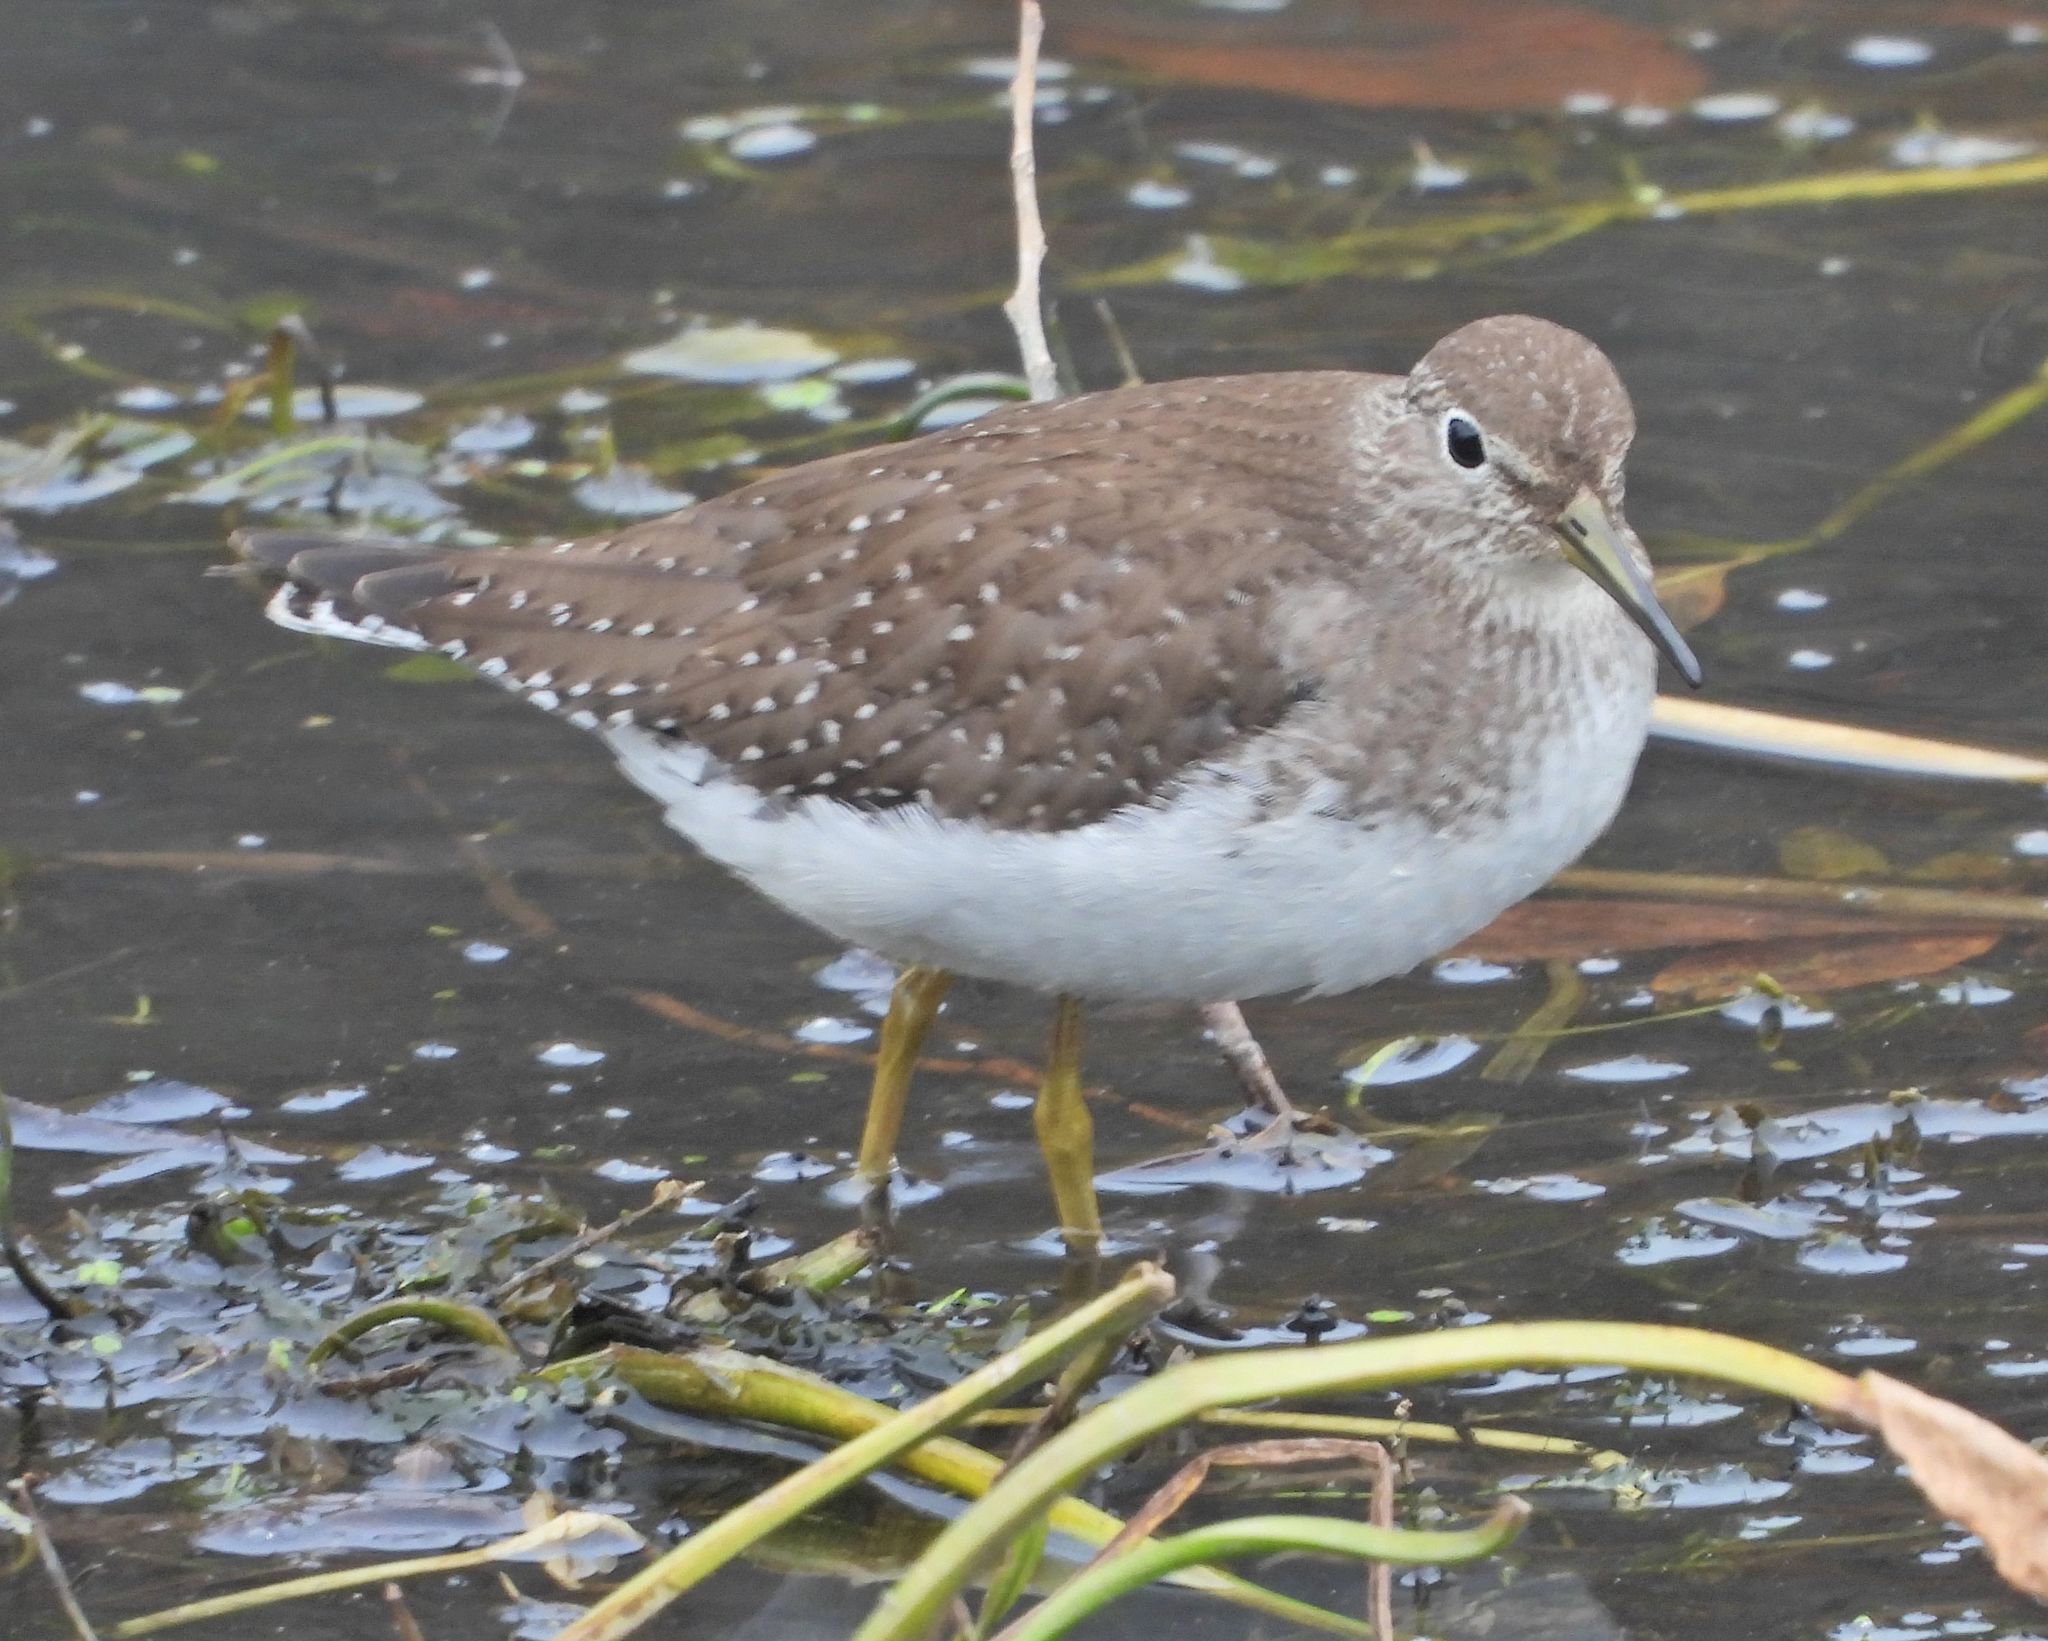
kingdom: Animalia
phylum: Chordata
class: Aves
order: Charadriiformes
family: Scolopacidae
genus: Tringa
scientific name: Tringa solitaria
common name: Solitary sandpiper
